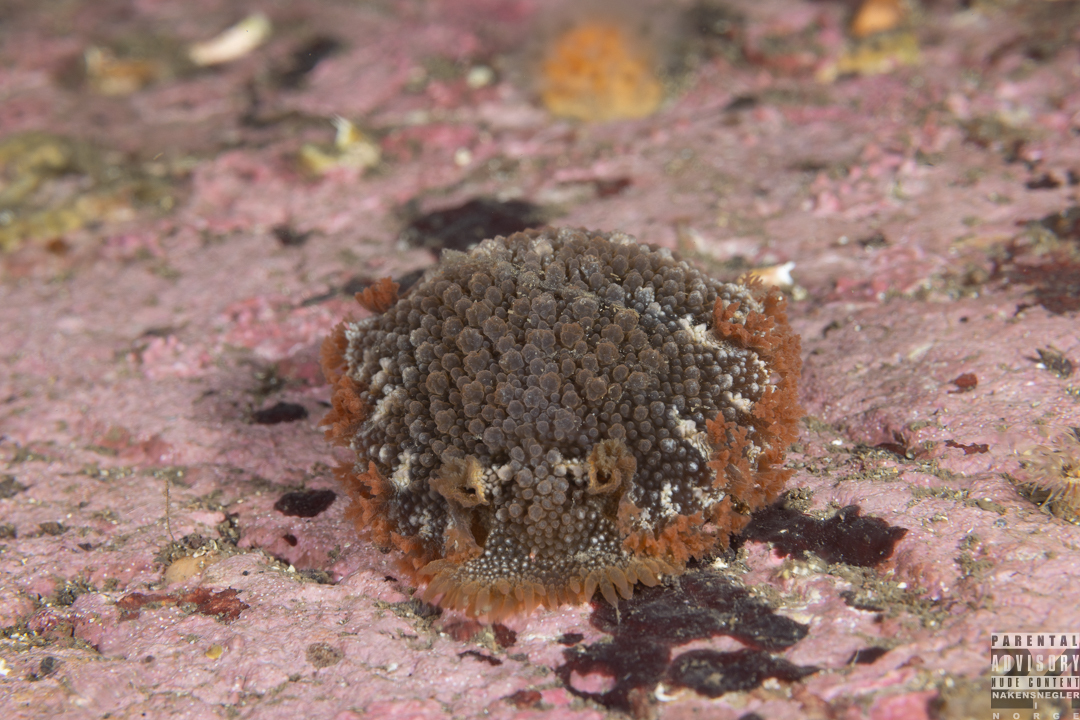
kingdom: Animalia
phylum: Mollusca
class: Gastropoda
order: Nudibranchia
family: Tritoniidae
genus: Tritonia
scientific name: Tritonia hombergii
